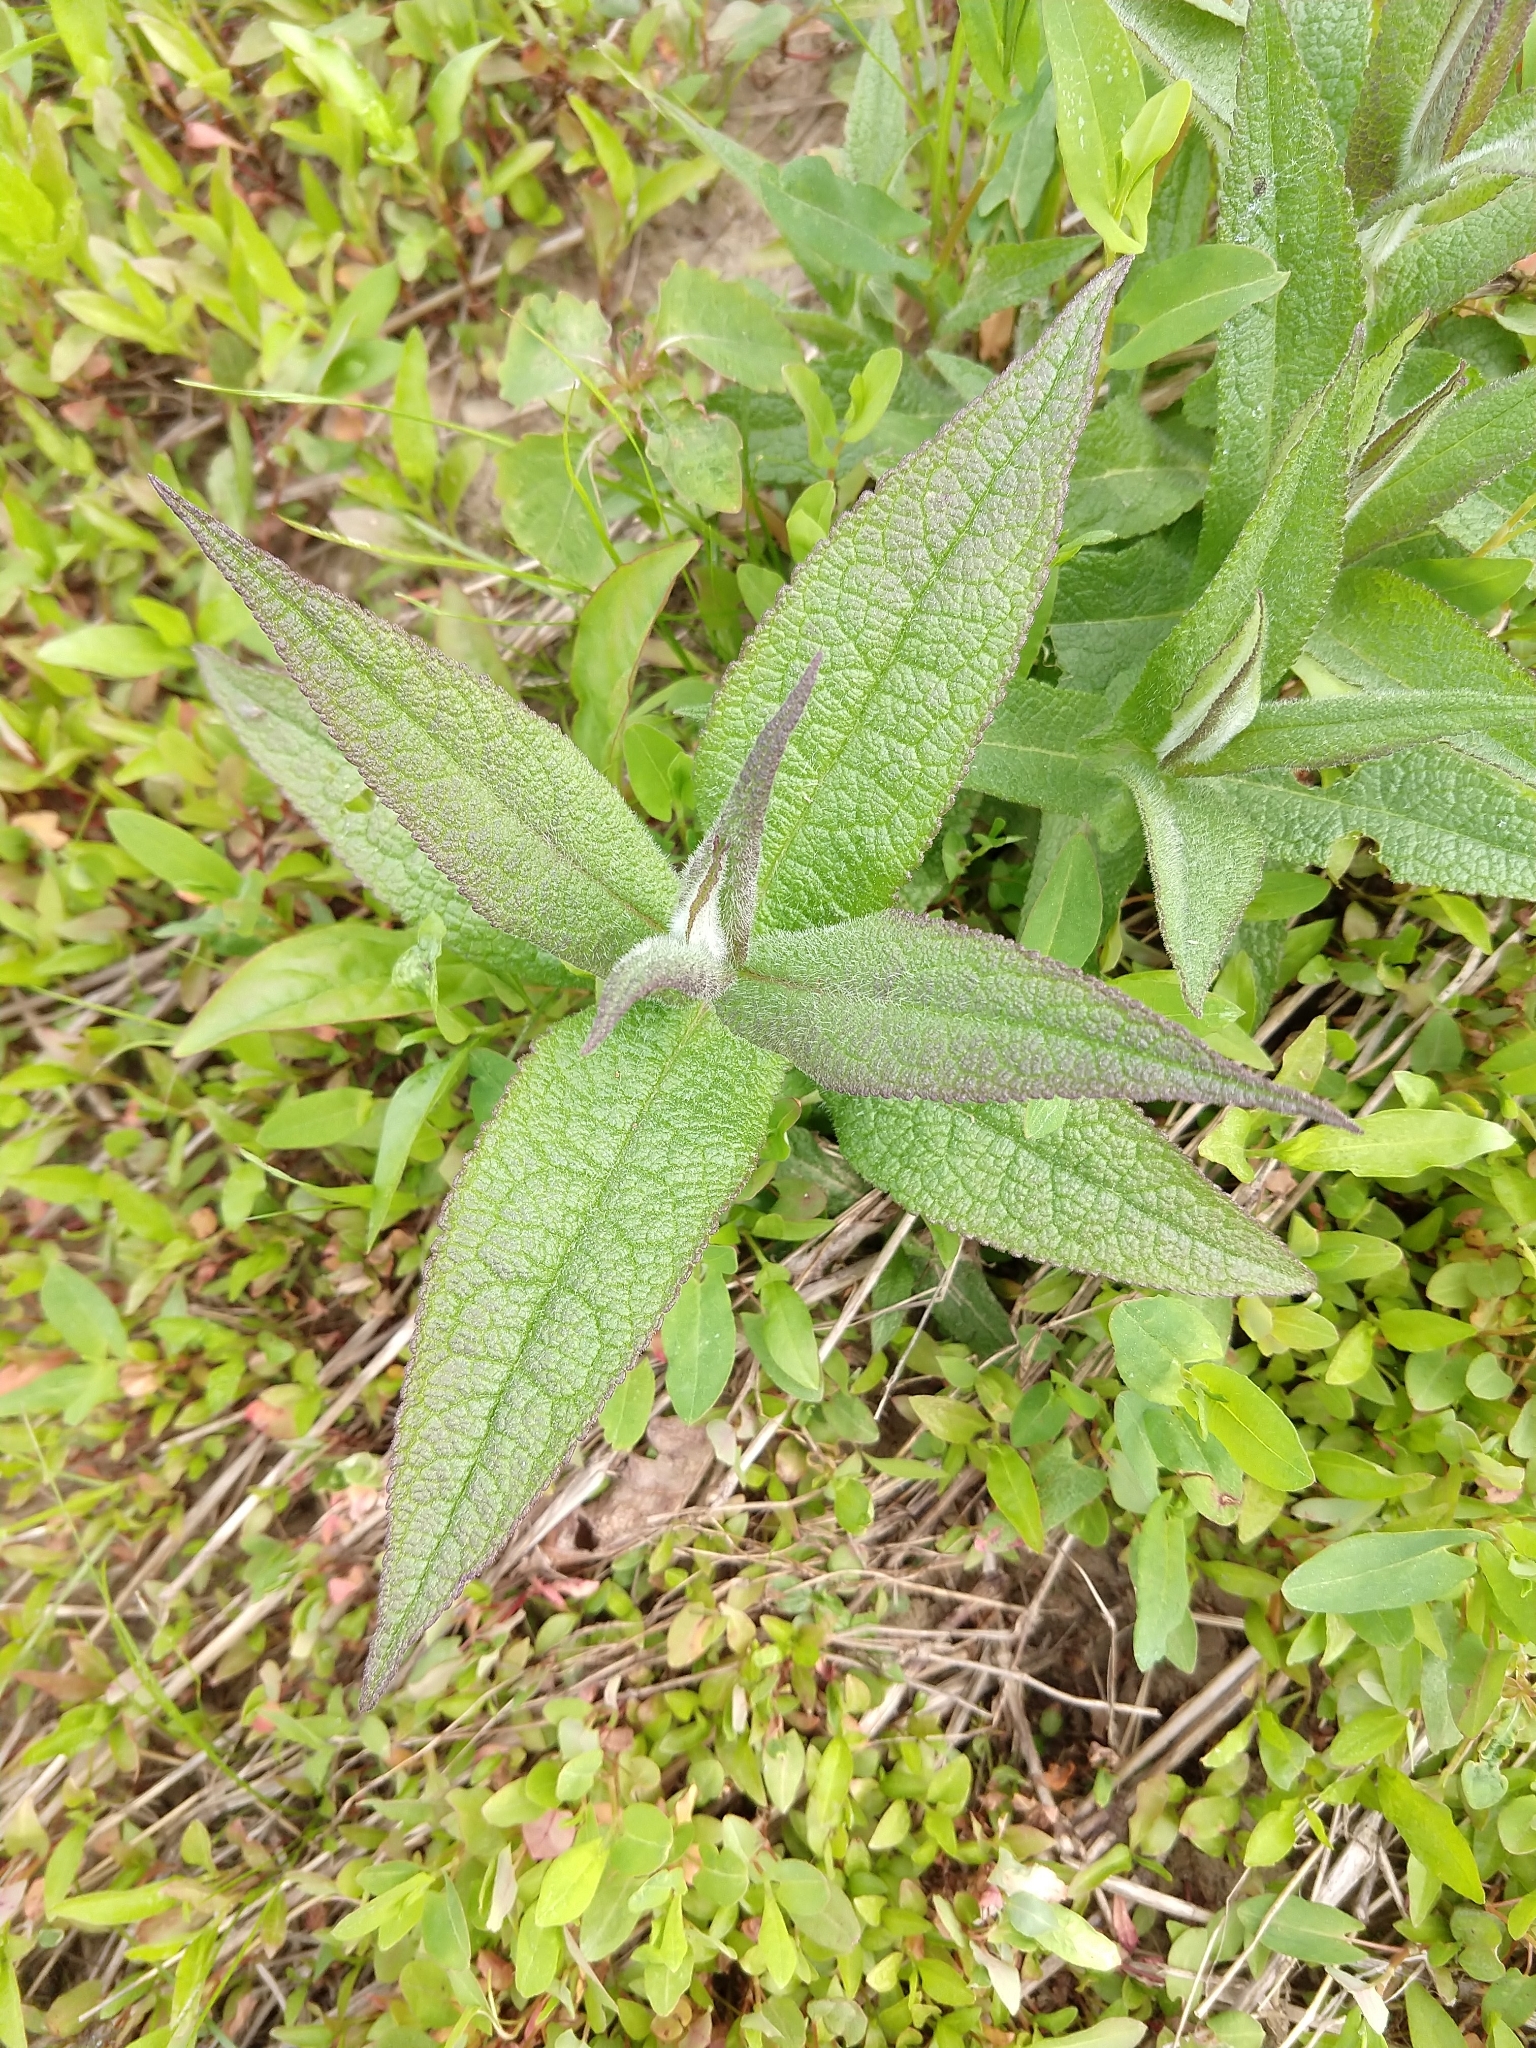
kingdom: Plantae
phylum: Tracheophyta
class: Magnoliopsida
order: Asterales
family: Asteraceae
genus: Eupatorium
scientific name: Eupatorium perfoliatum
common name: Boneset
